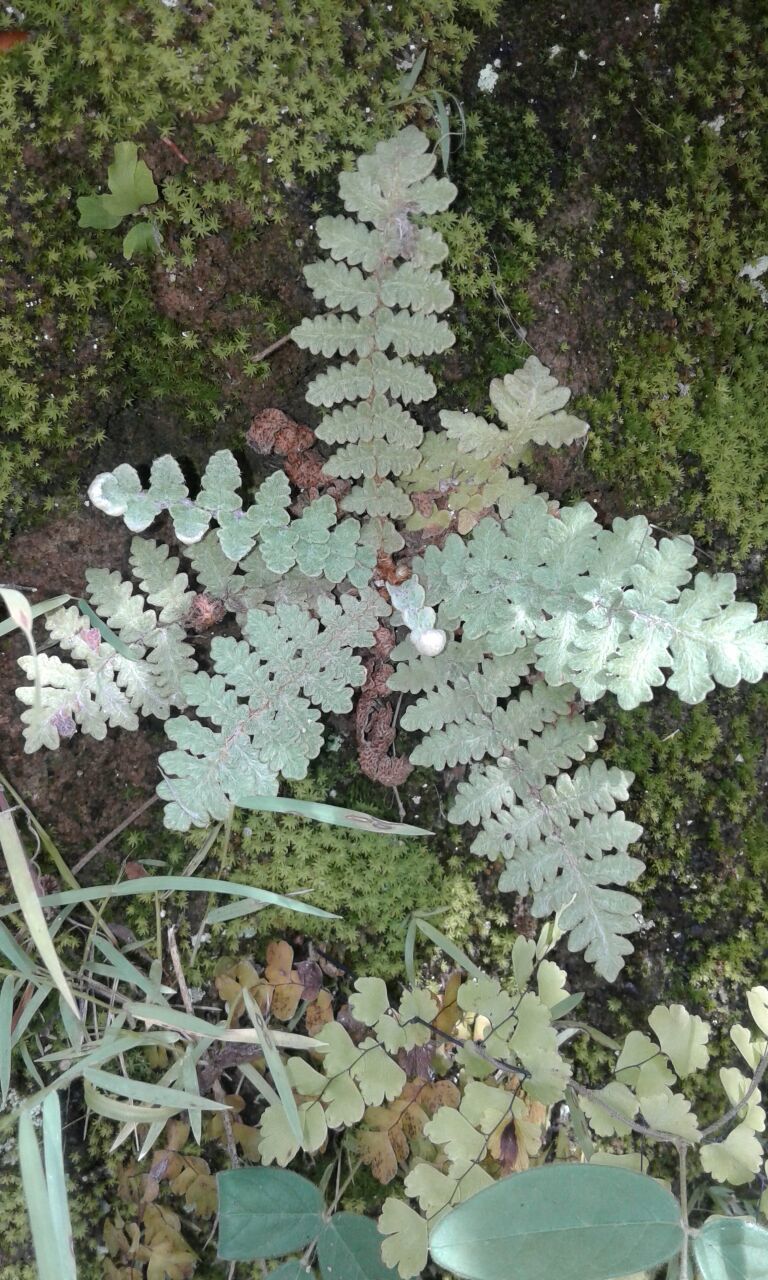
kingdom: Plantae
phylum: Tracheophyta
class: Polypodiopsida
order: Polypodiales
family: Pteridaceae
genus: Notholaena
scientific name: Notholaena brachypus
